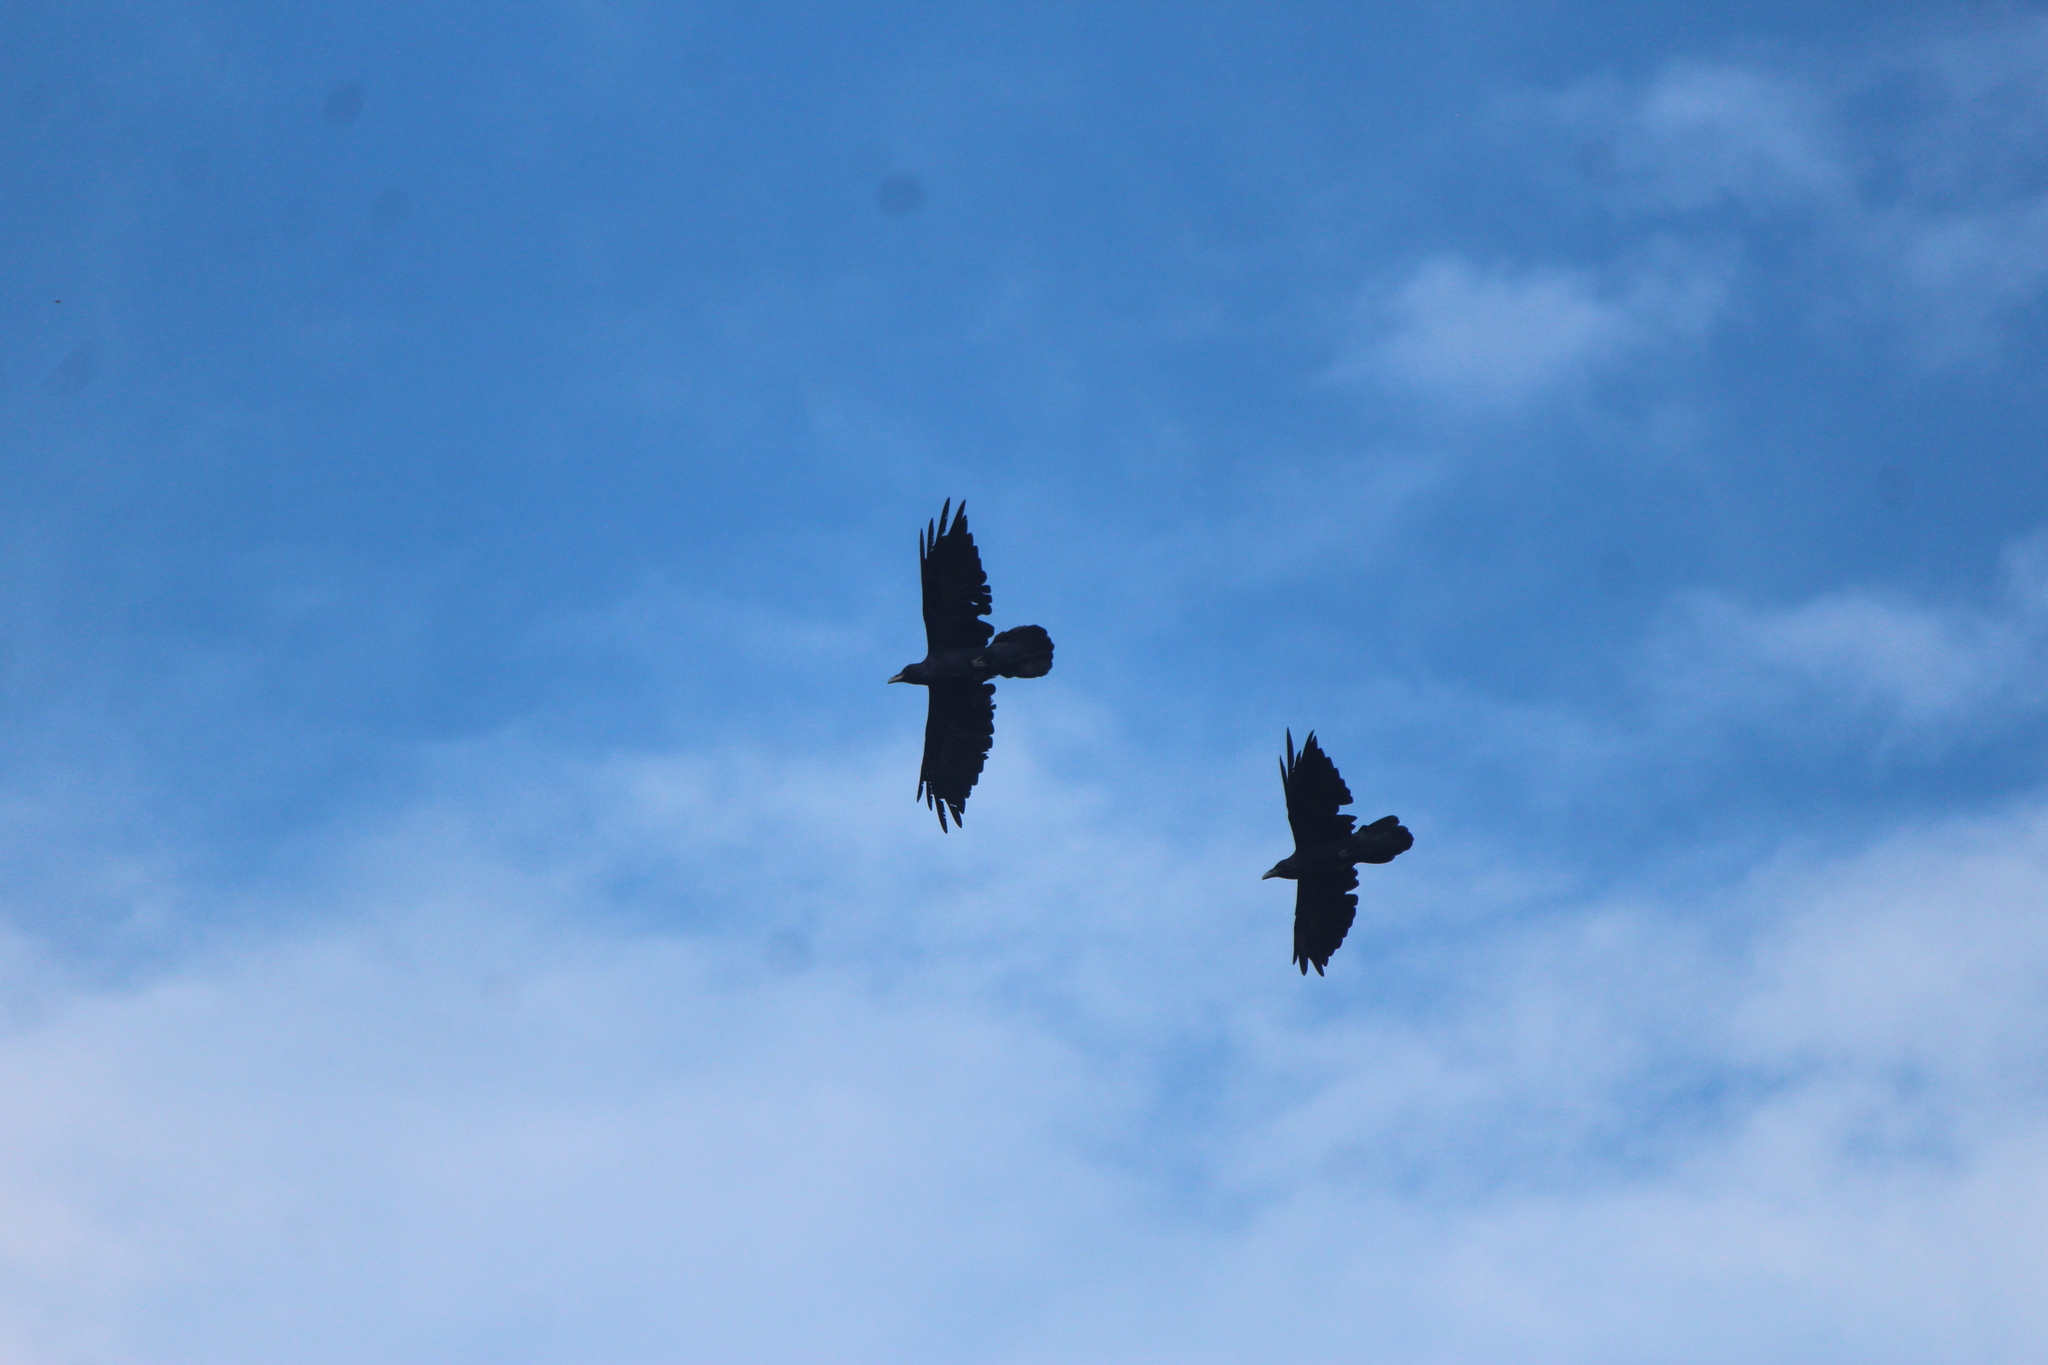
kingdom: Animalia
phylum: Chordata
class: Aves
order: Passeriformes
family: Corvidae
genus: Corvus
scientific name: Corvus corax
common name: Common raven
